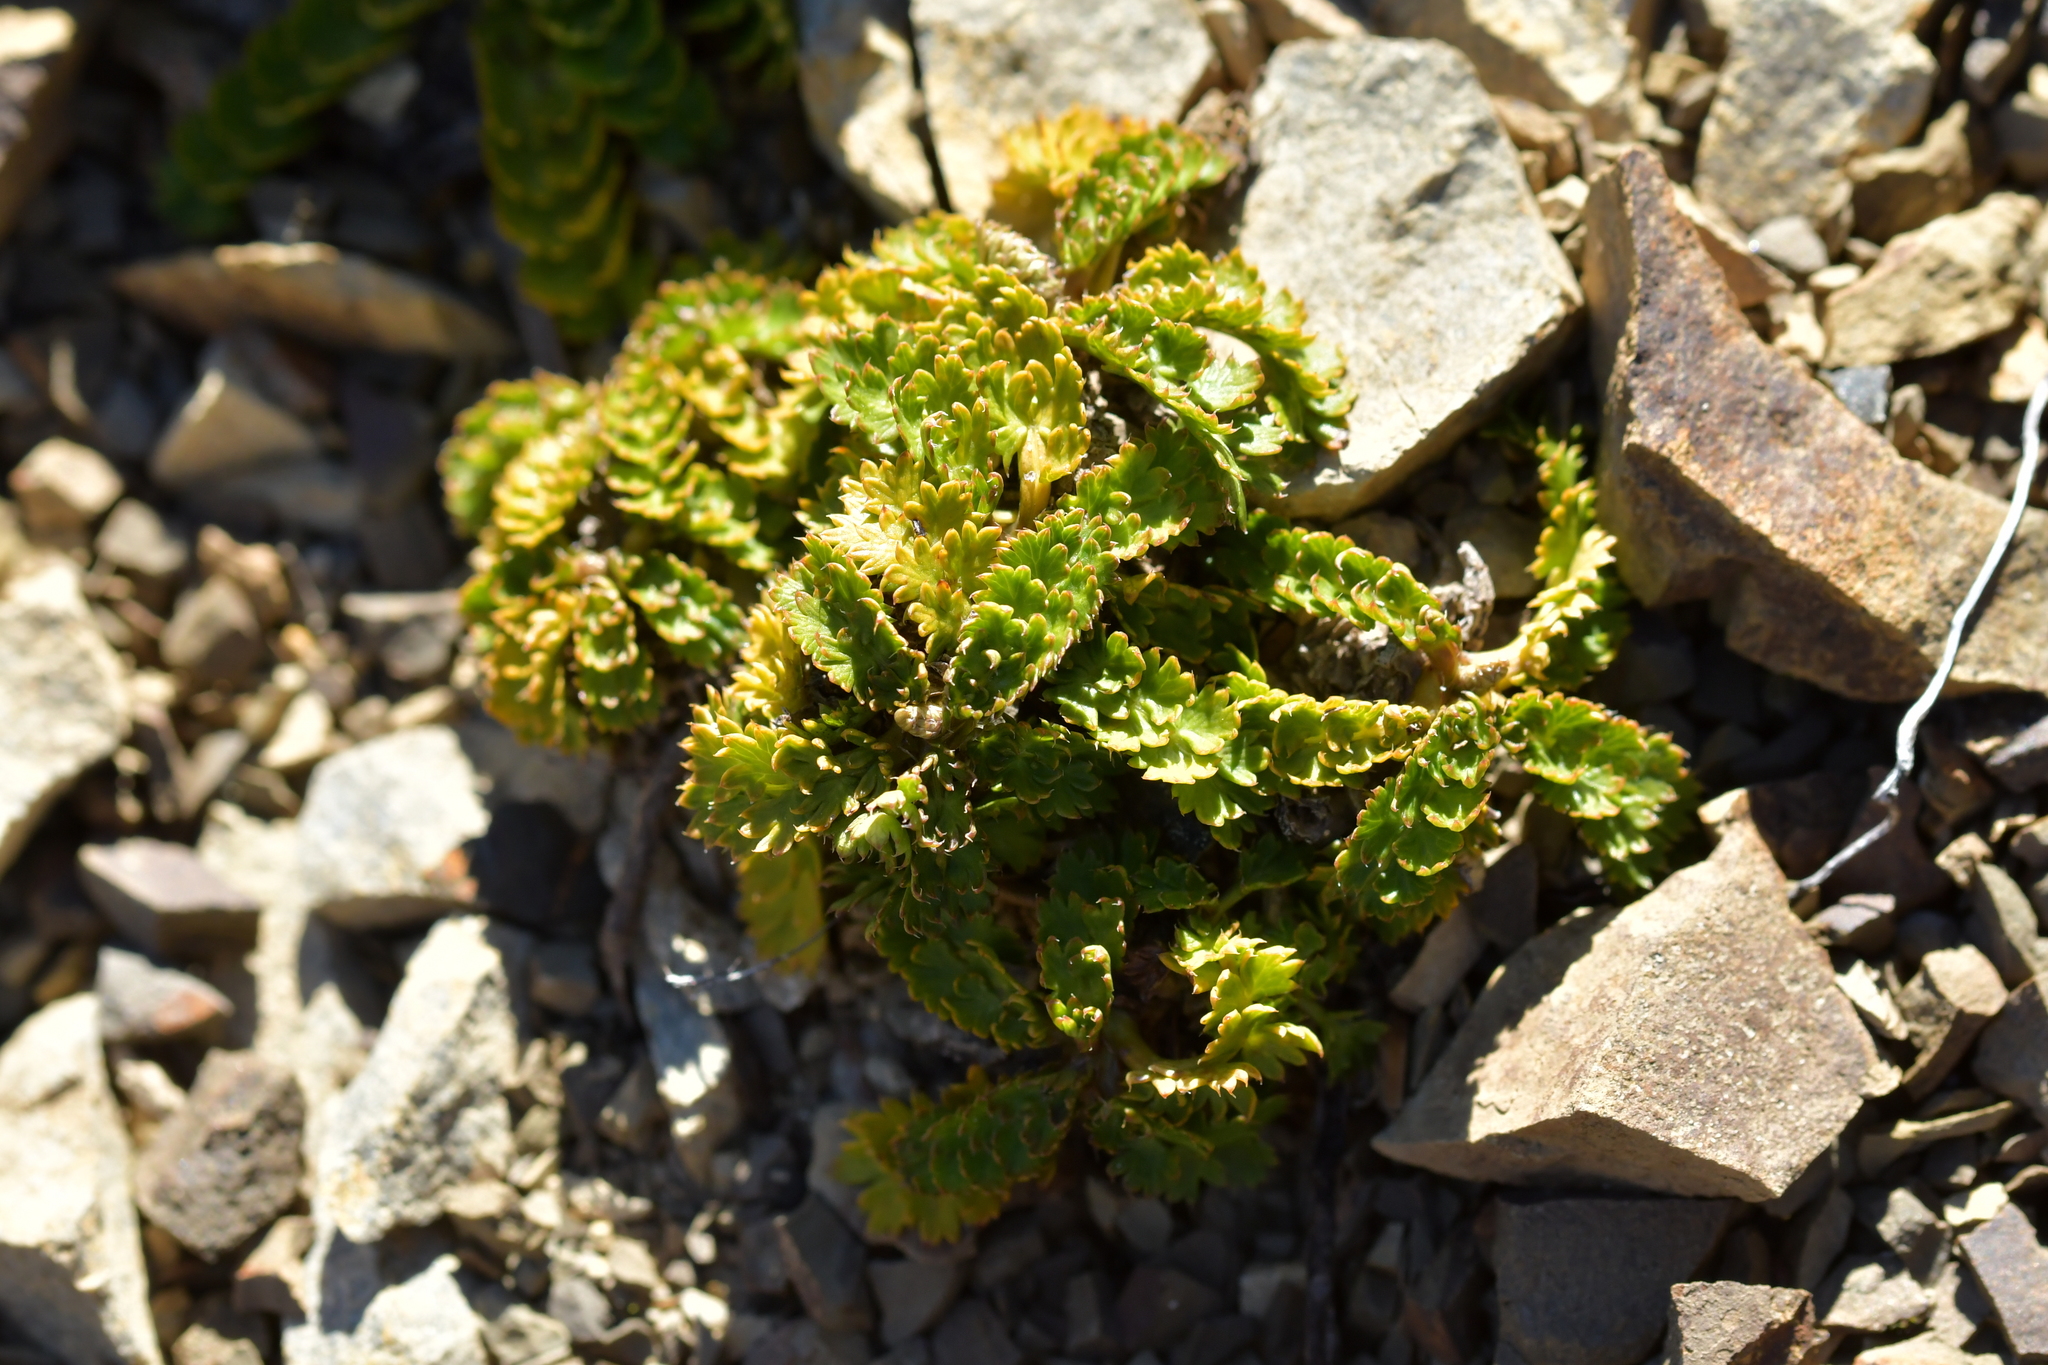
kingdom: Plantae
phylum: Tracheophyta
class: Magnoliopsida
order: Apiales
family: Apiaceae
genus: Anisotome
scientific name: Anisotome aromatica
